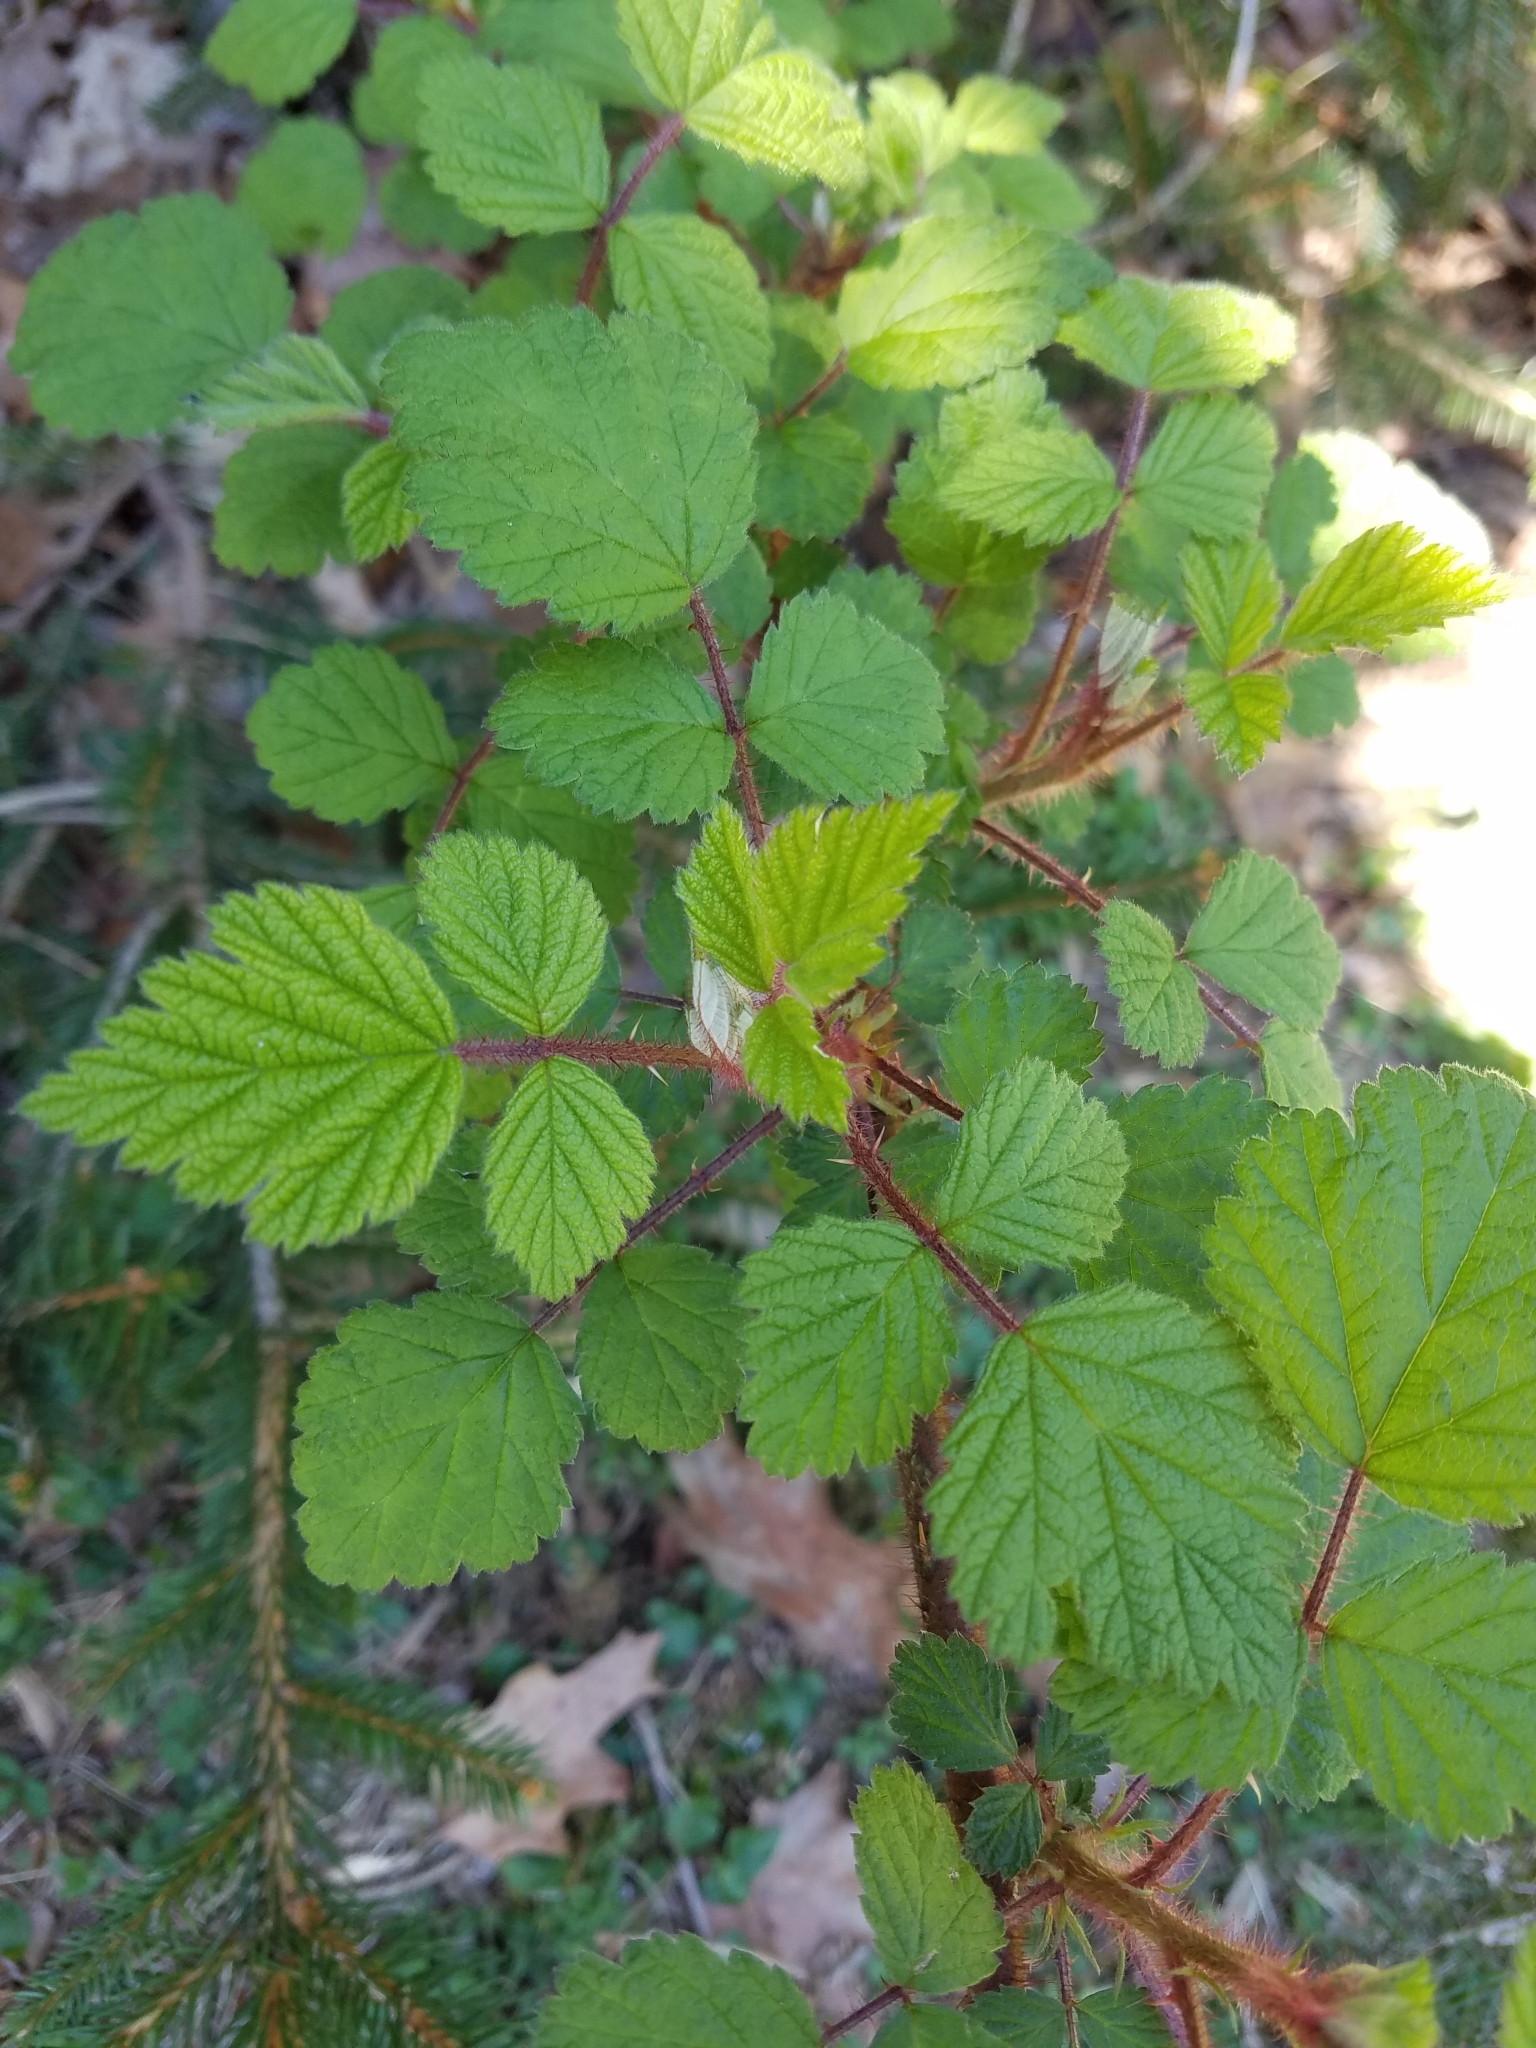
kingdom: Plantae
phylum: Tracheophyta
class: Magnoliopsida
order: Rosales
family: Rosaceae
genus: Rubus
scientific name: Rubus phoenicolasius
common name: Japanese wineberry
